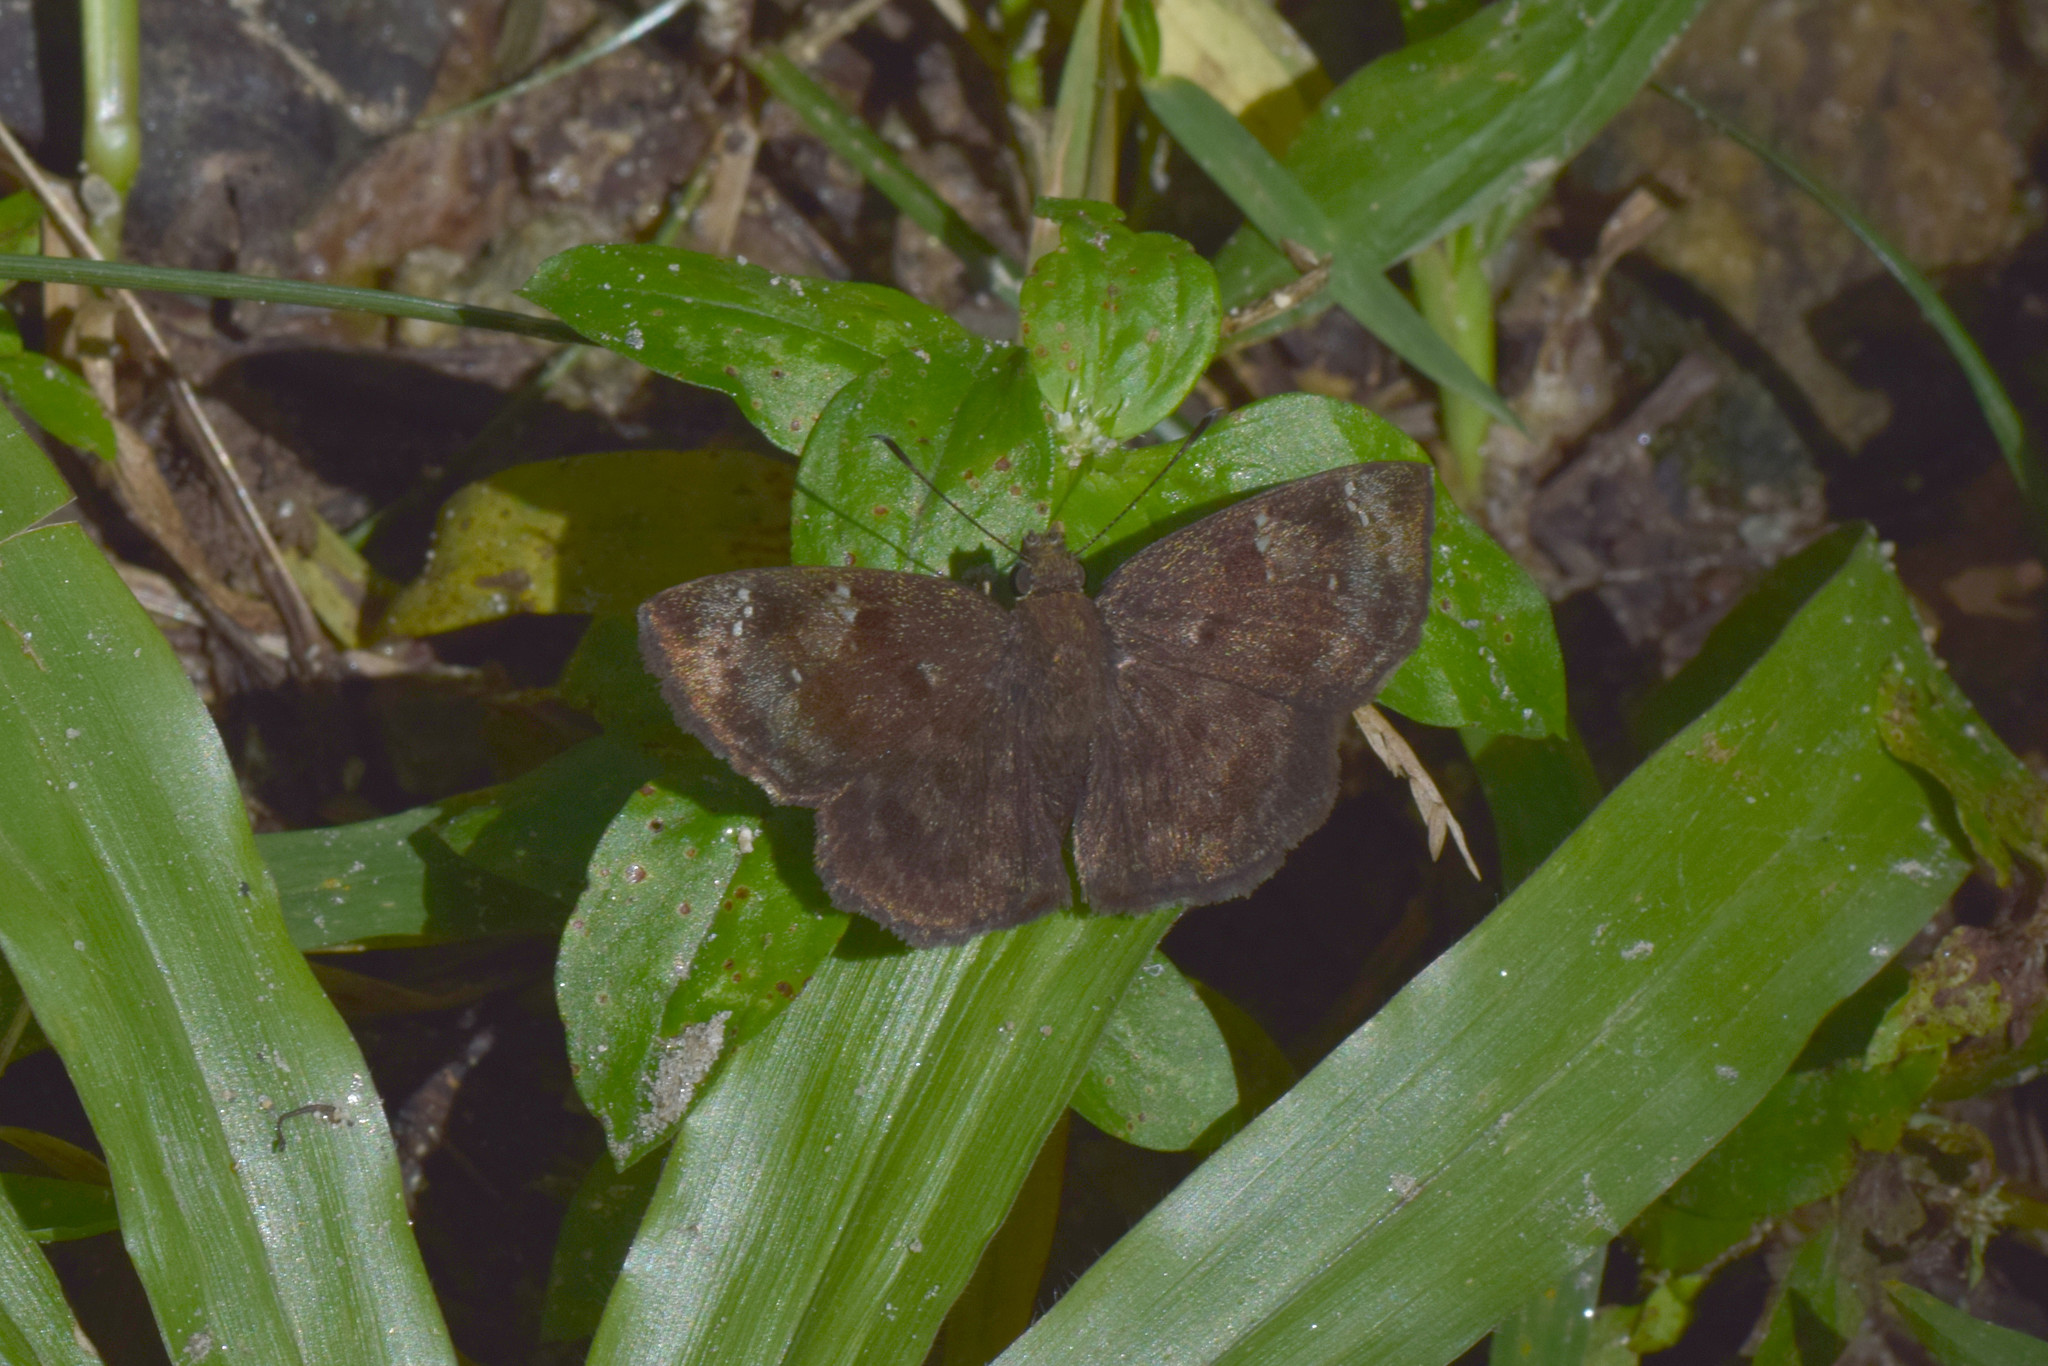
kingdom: Animalia
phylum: Arthropoda
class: Insecta
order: Lepidoptera
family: Hesperiidae
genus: Sarangesa
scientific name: Sarangesa dasahara
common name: Common small flat
